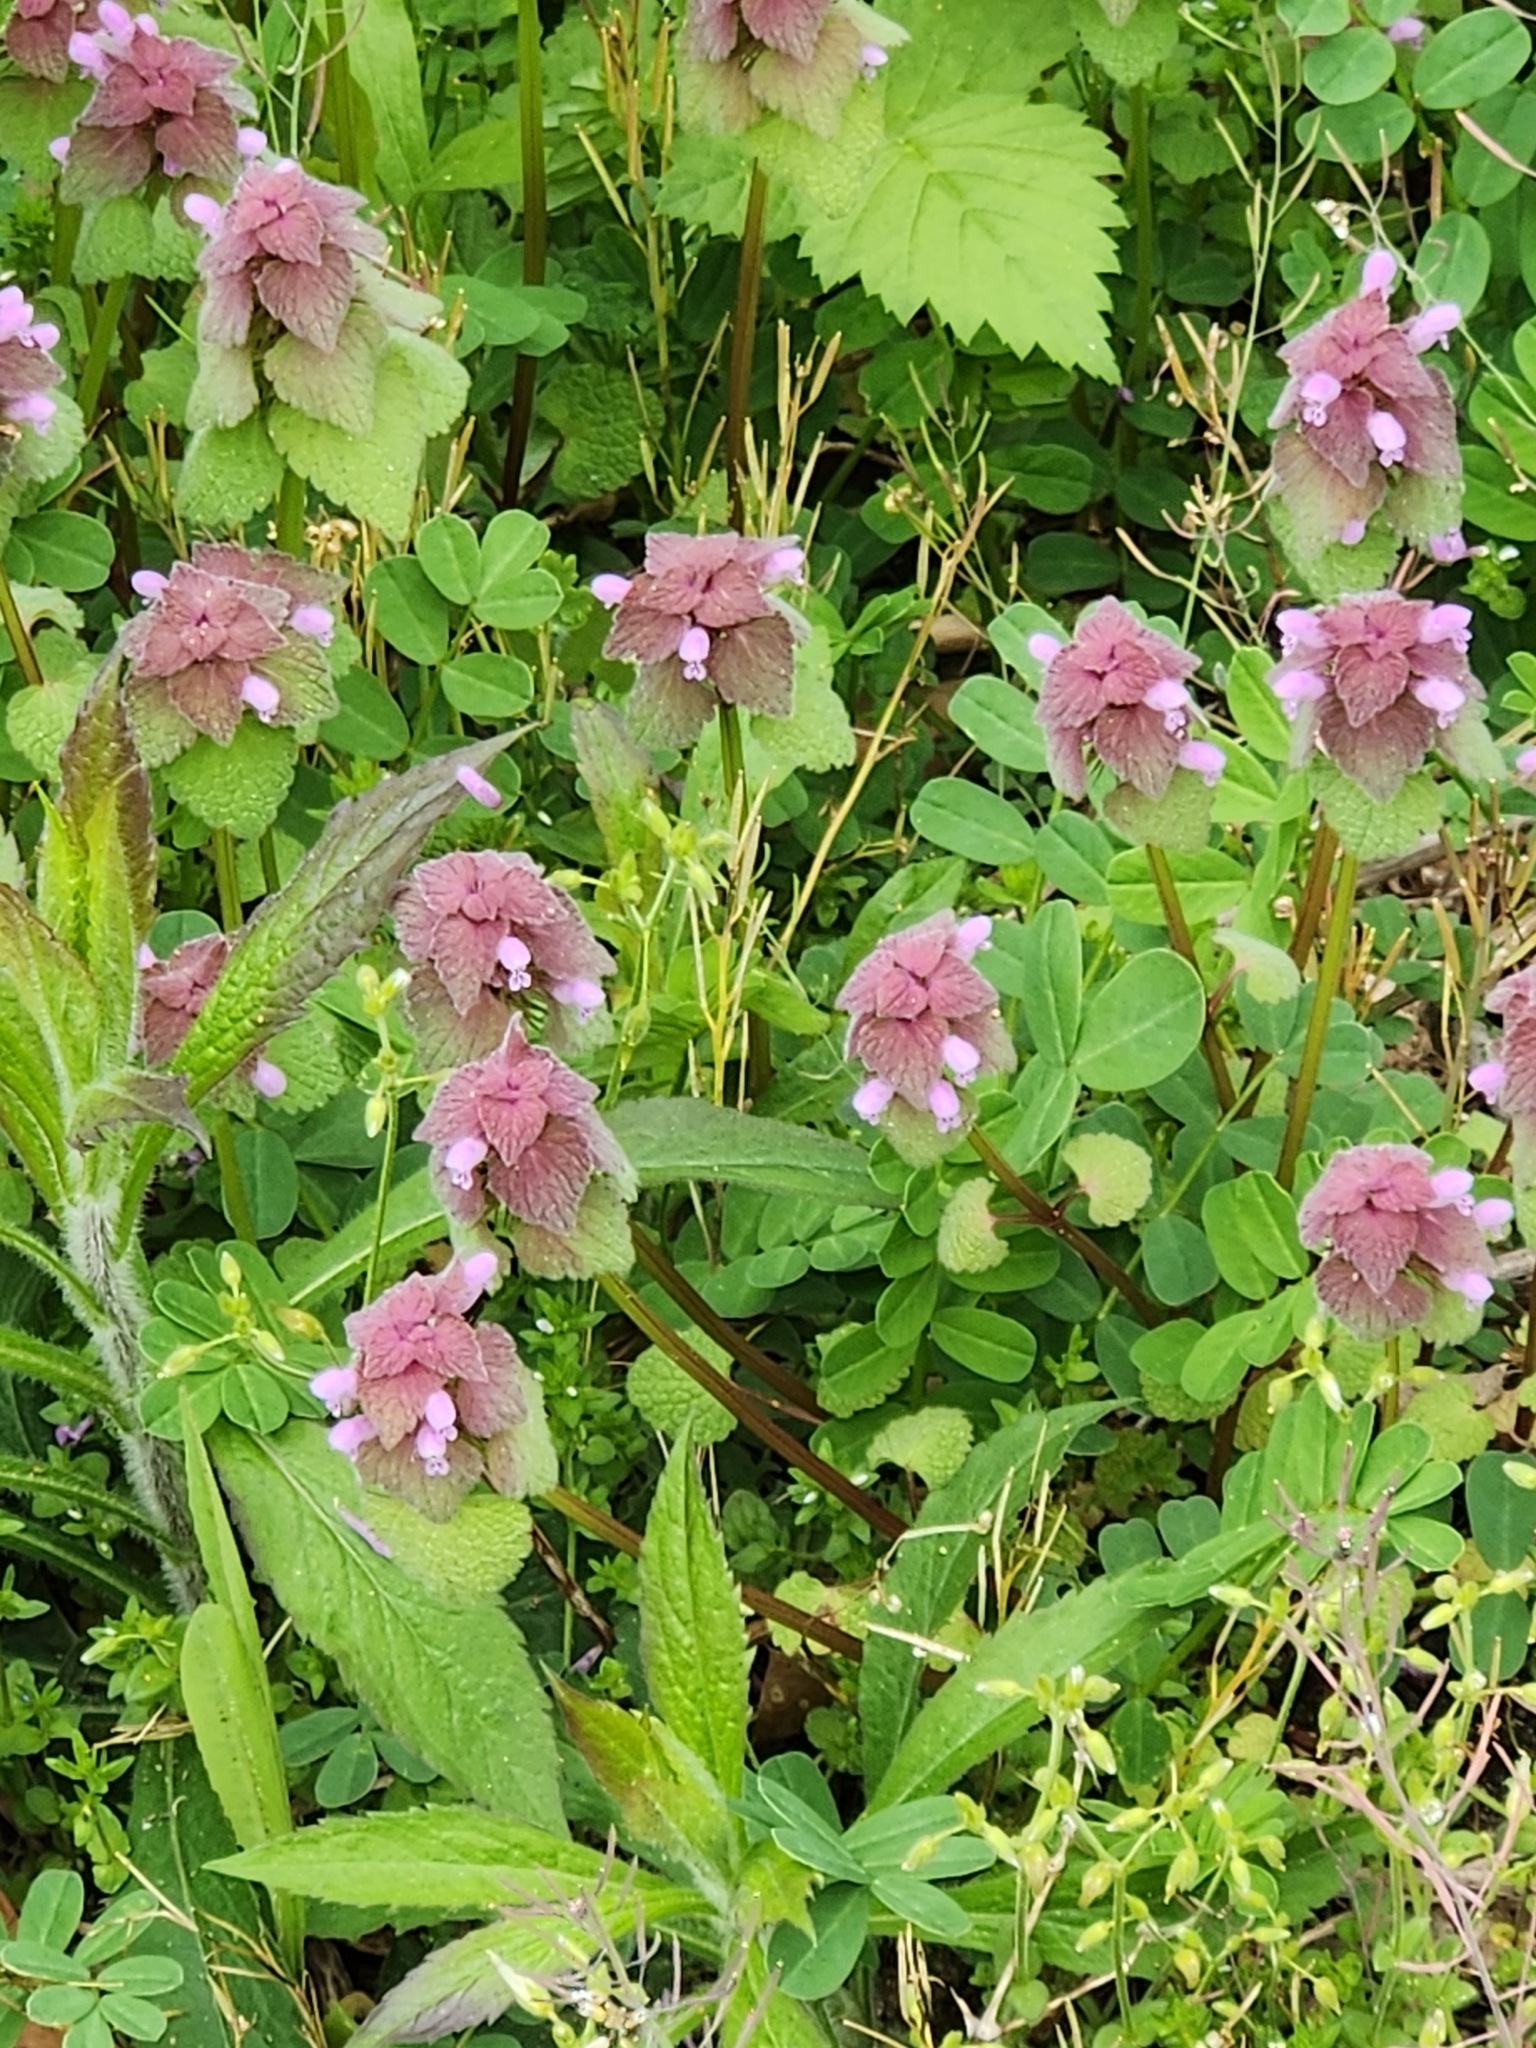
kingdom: Plantae
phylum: Tracheophyta
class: Magnoliopsida
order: Lamiales
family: Lamiaceae
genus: Lamium
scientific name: Lamium purpureum
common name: Red dead-nettle
